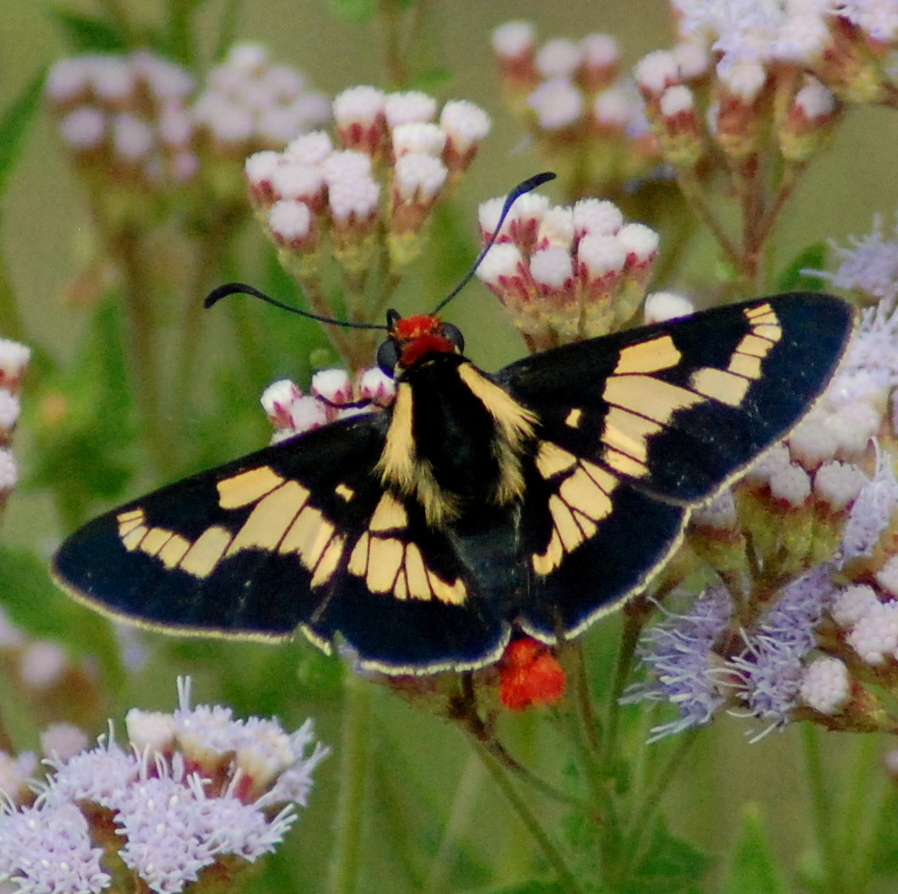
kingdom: Animalia
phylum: Arthropoda
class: Insecta
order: Lepidoptera
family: Hesperiidae
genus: Sarbia
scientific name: Sarbia damippe
